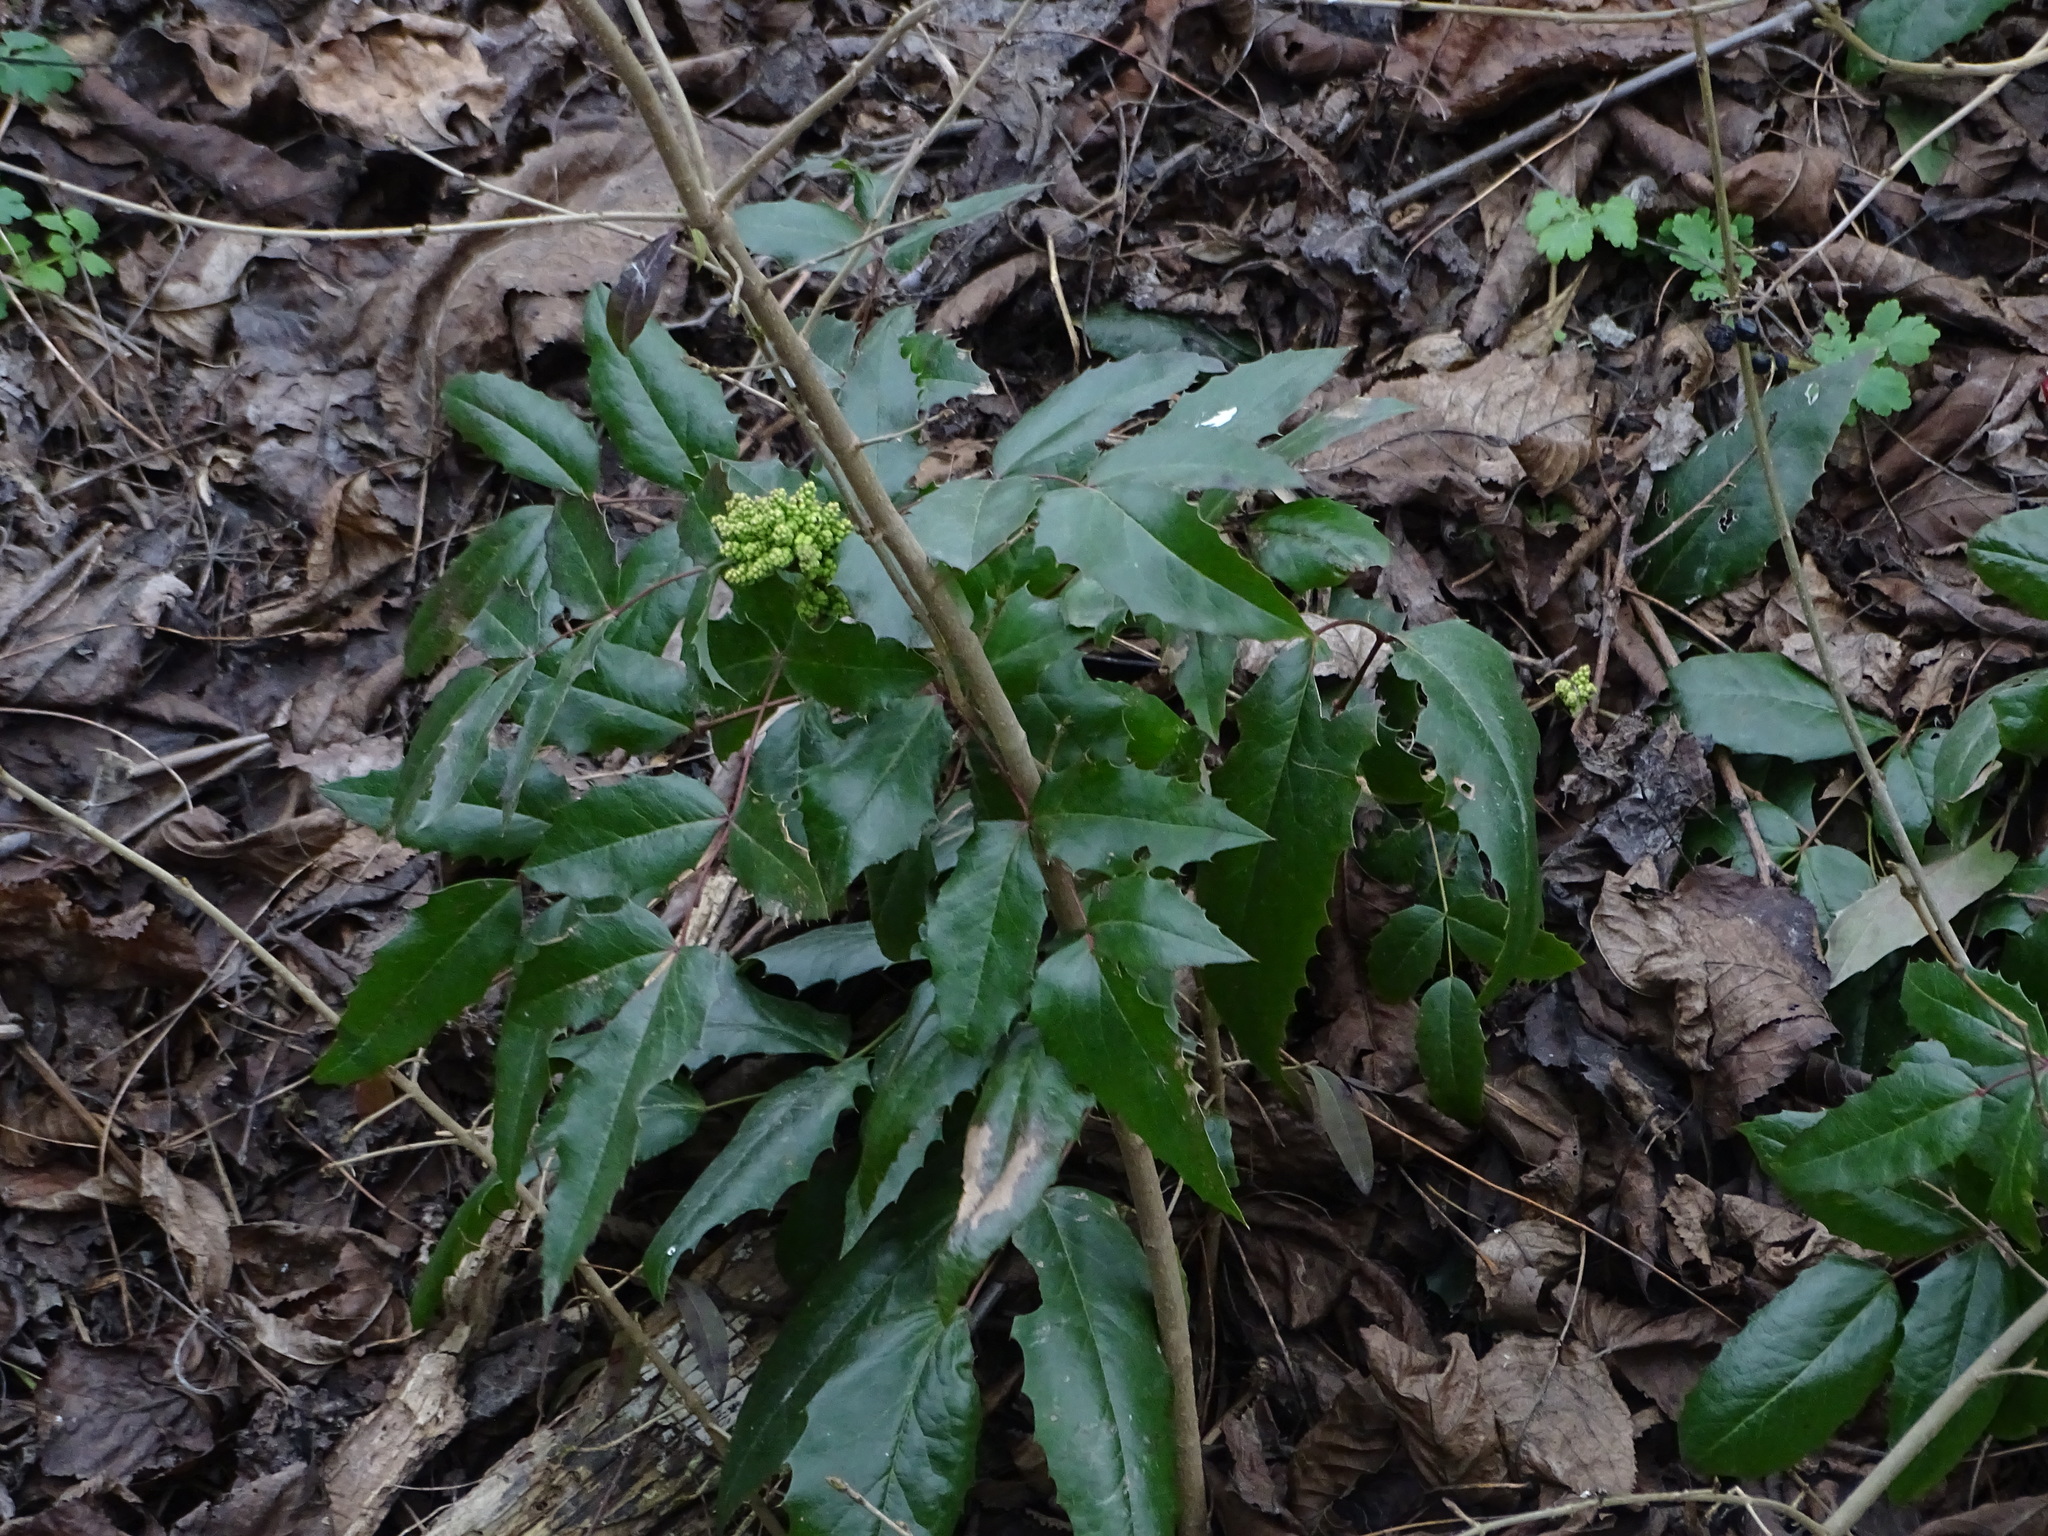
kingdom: Plantae
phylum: Tracheophyta
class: Magnoliopsida
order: Ranunculales
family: Berberidaceae
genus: Mahonia
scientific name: Mahonia aquifolium
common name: Oregon-grape
